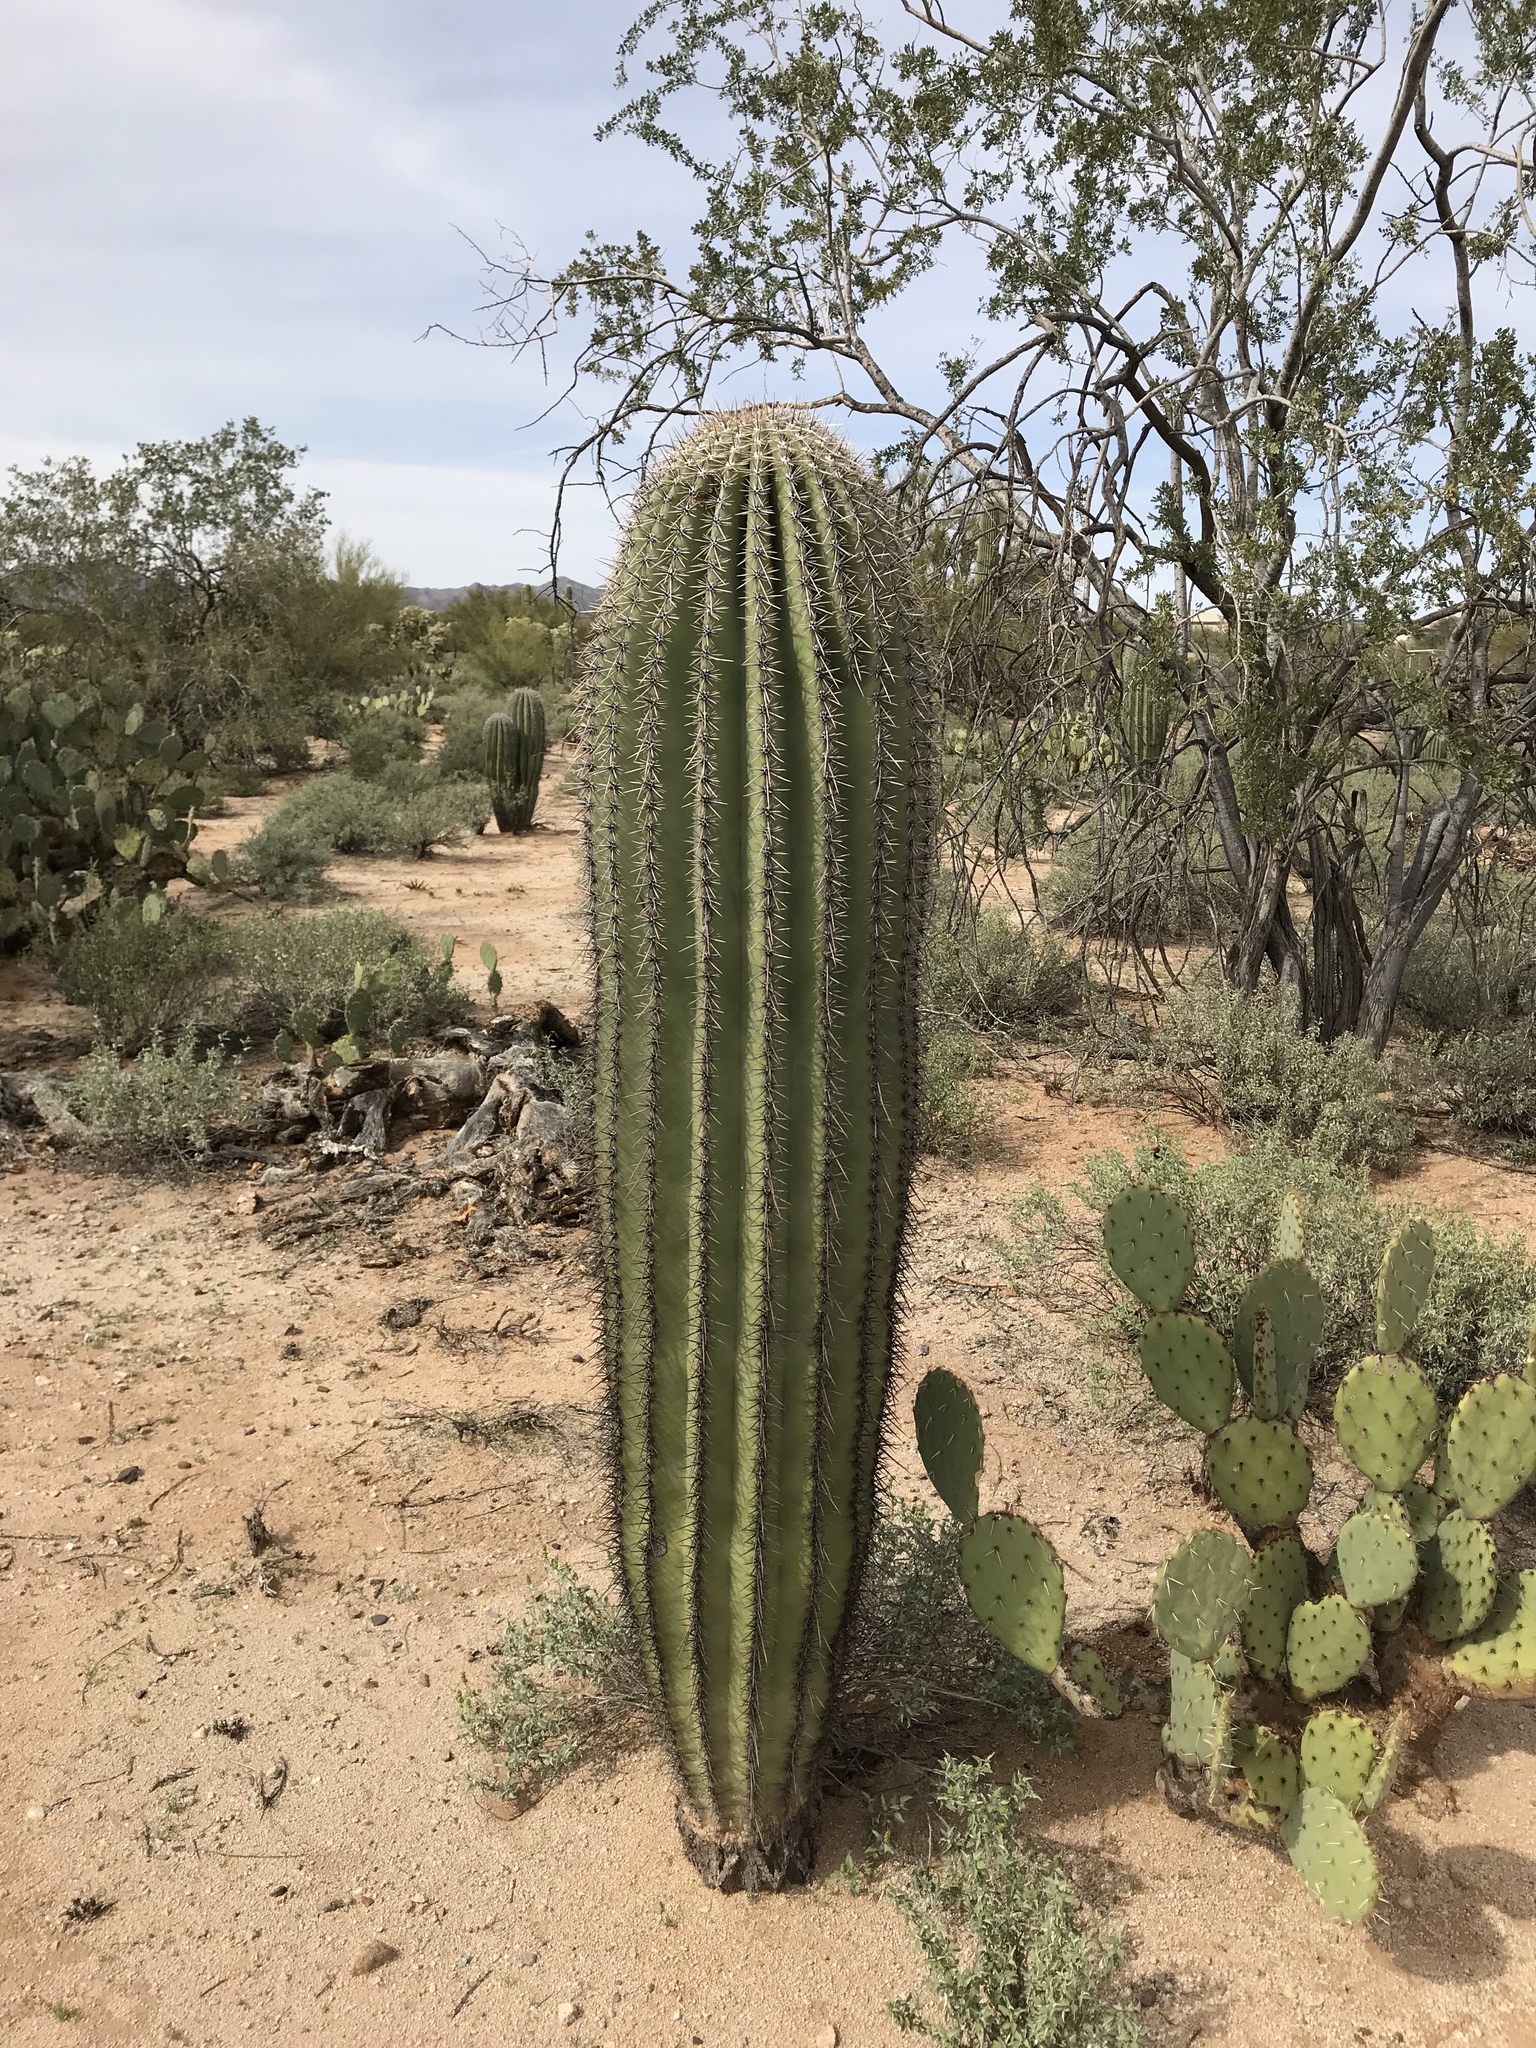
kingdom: Plantae
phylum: Tracheophyta
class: Magnoliopsida
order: Caryophyllales
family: Cactaceae
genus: Carnegiea
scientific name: Carnegiea gigantea
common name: Saguaro
